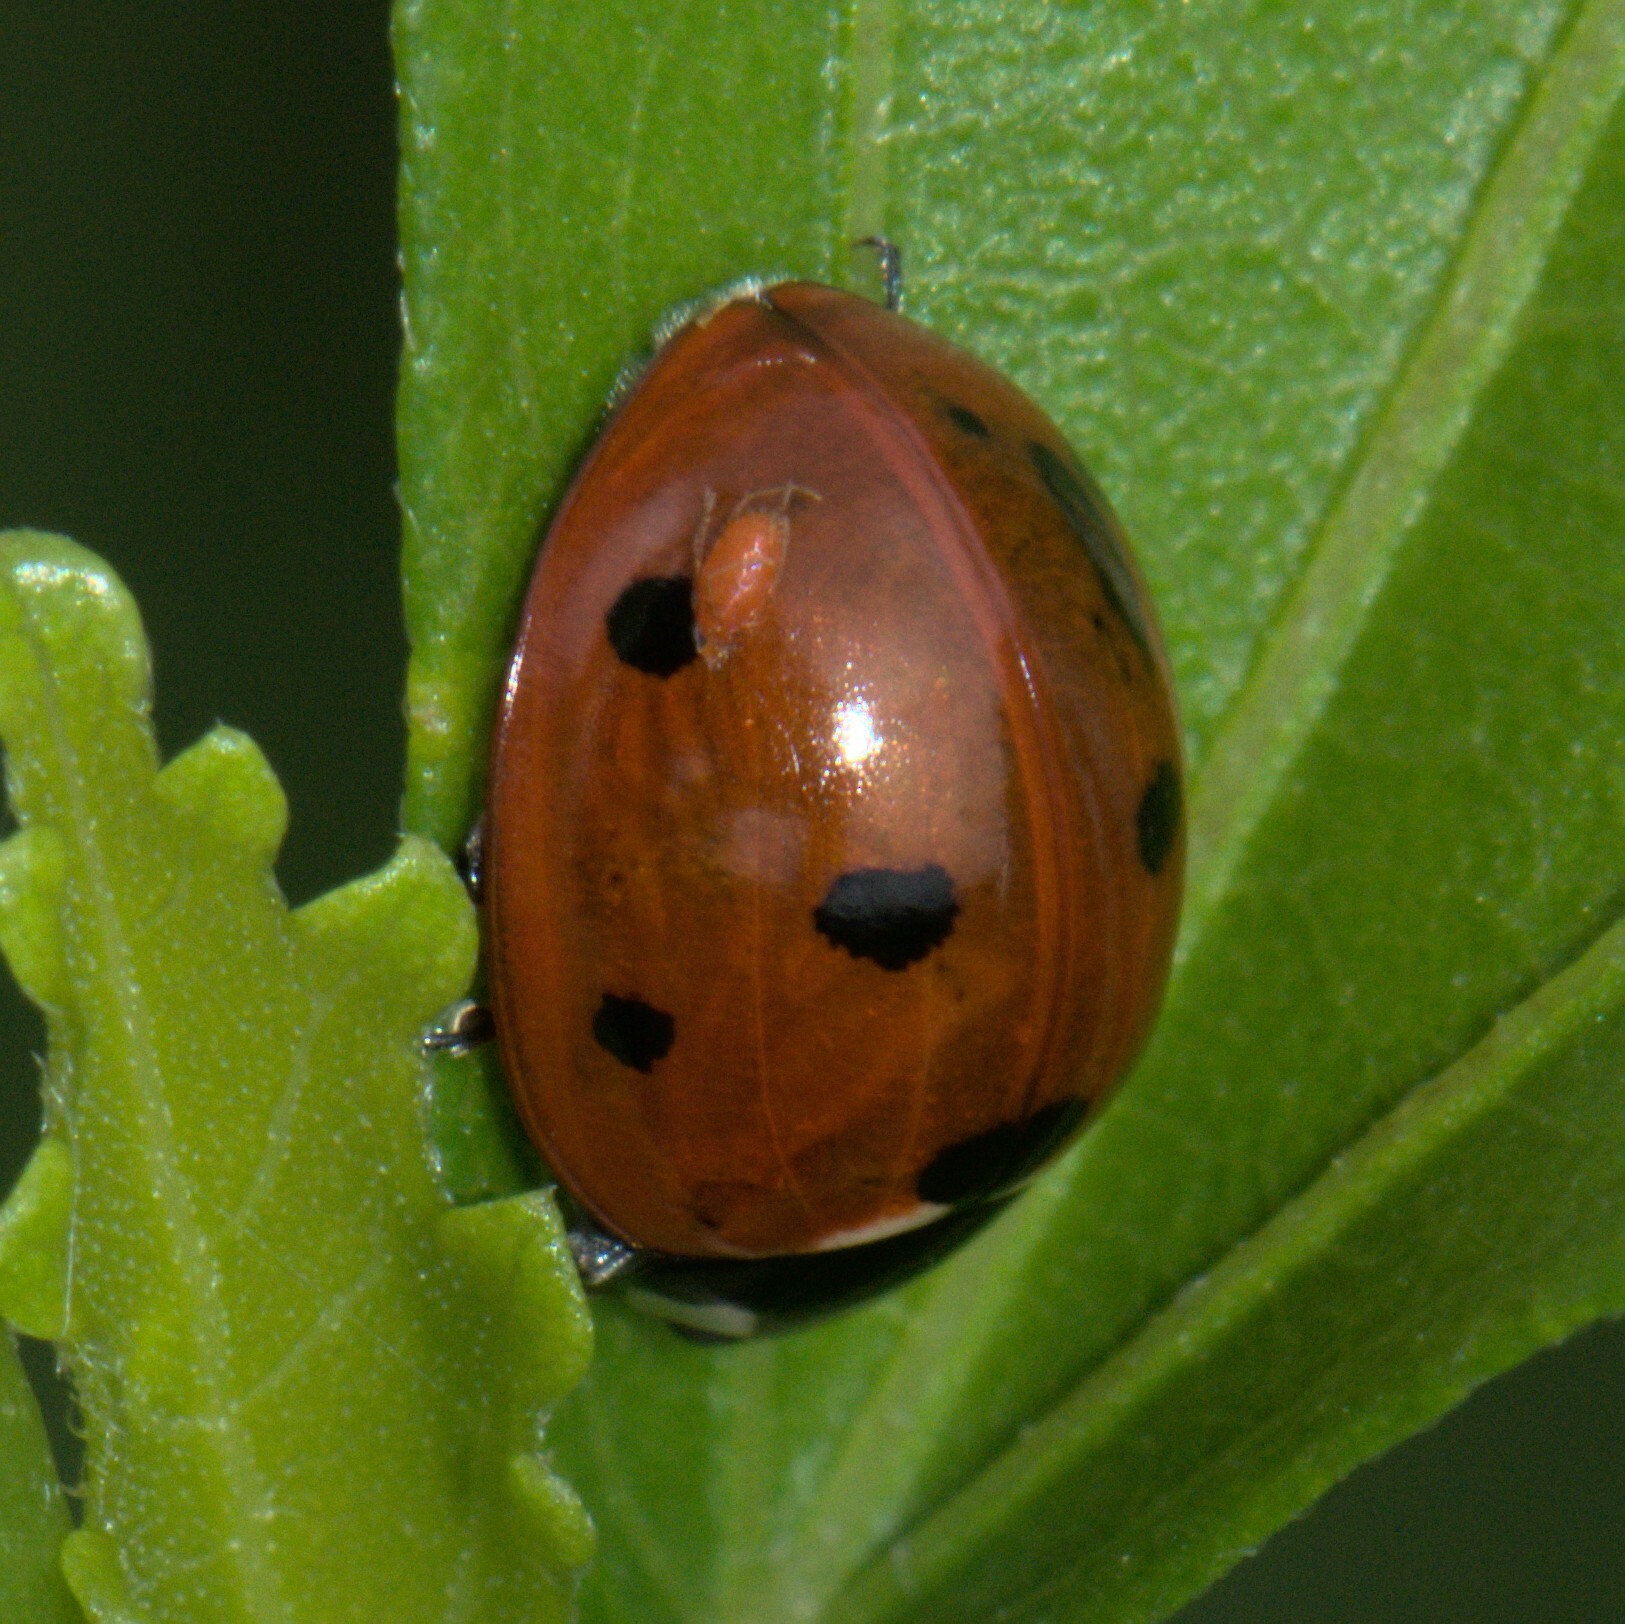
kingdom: Animalia
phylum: Arthropoda
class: Insecta
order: Coleoptera
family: Coccinellidae
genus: Coccinella
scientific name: Coccinella septempunctata
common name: Sevenspotted lady beetle
